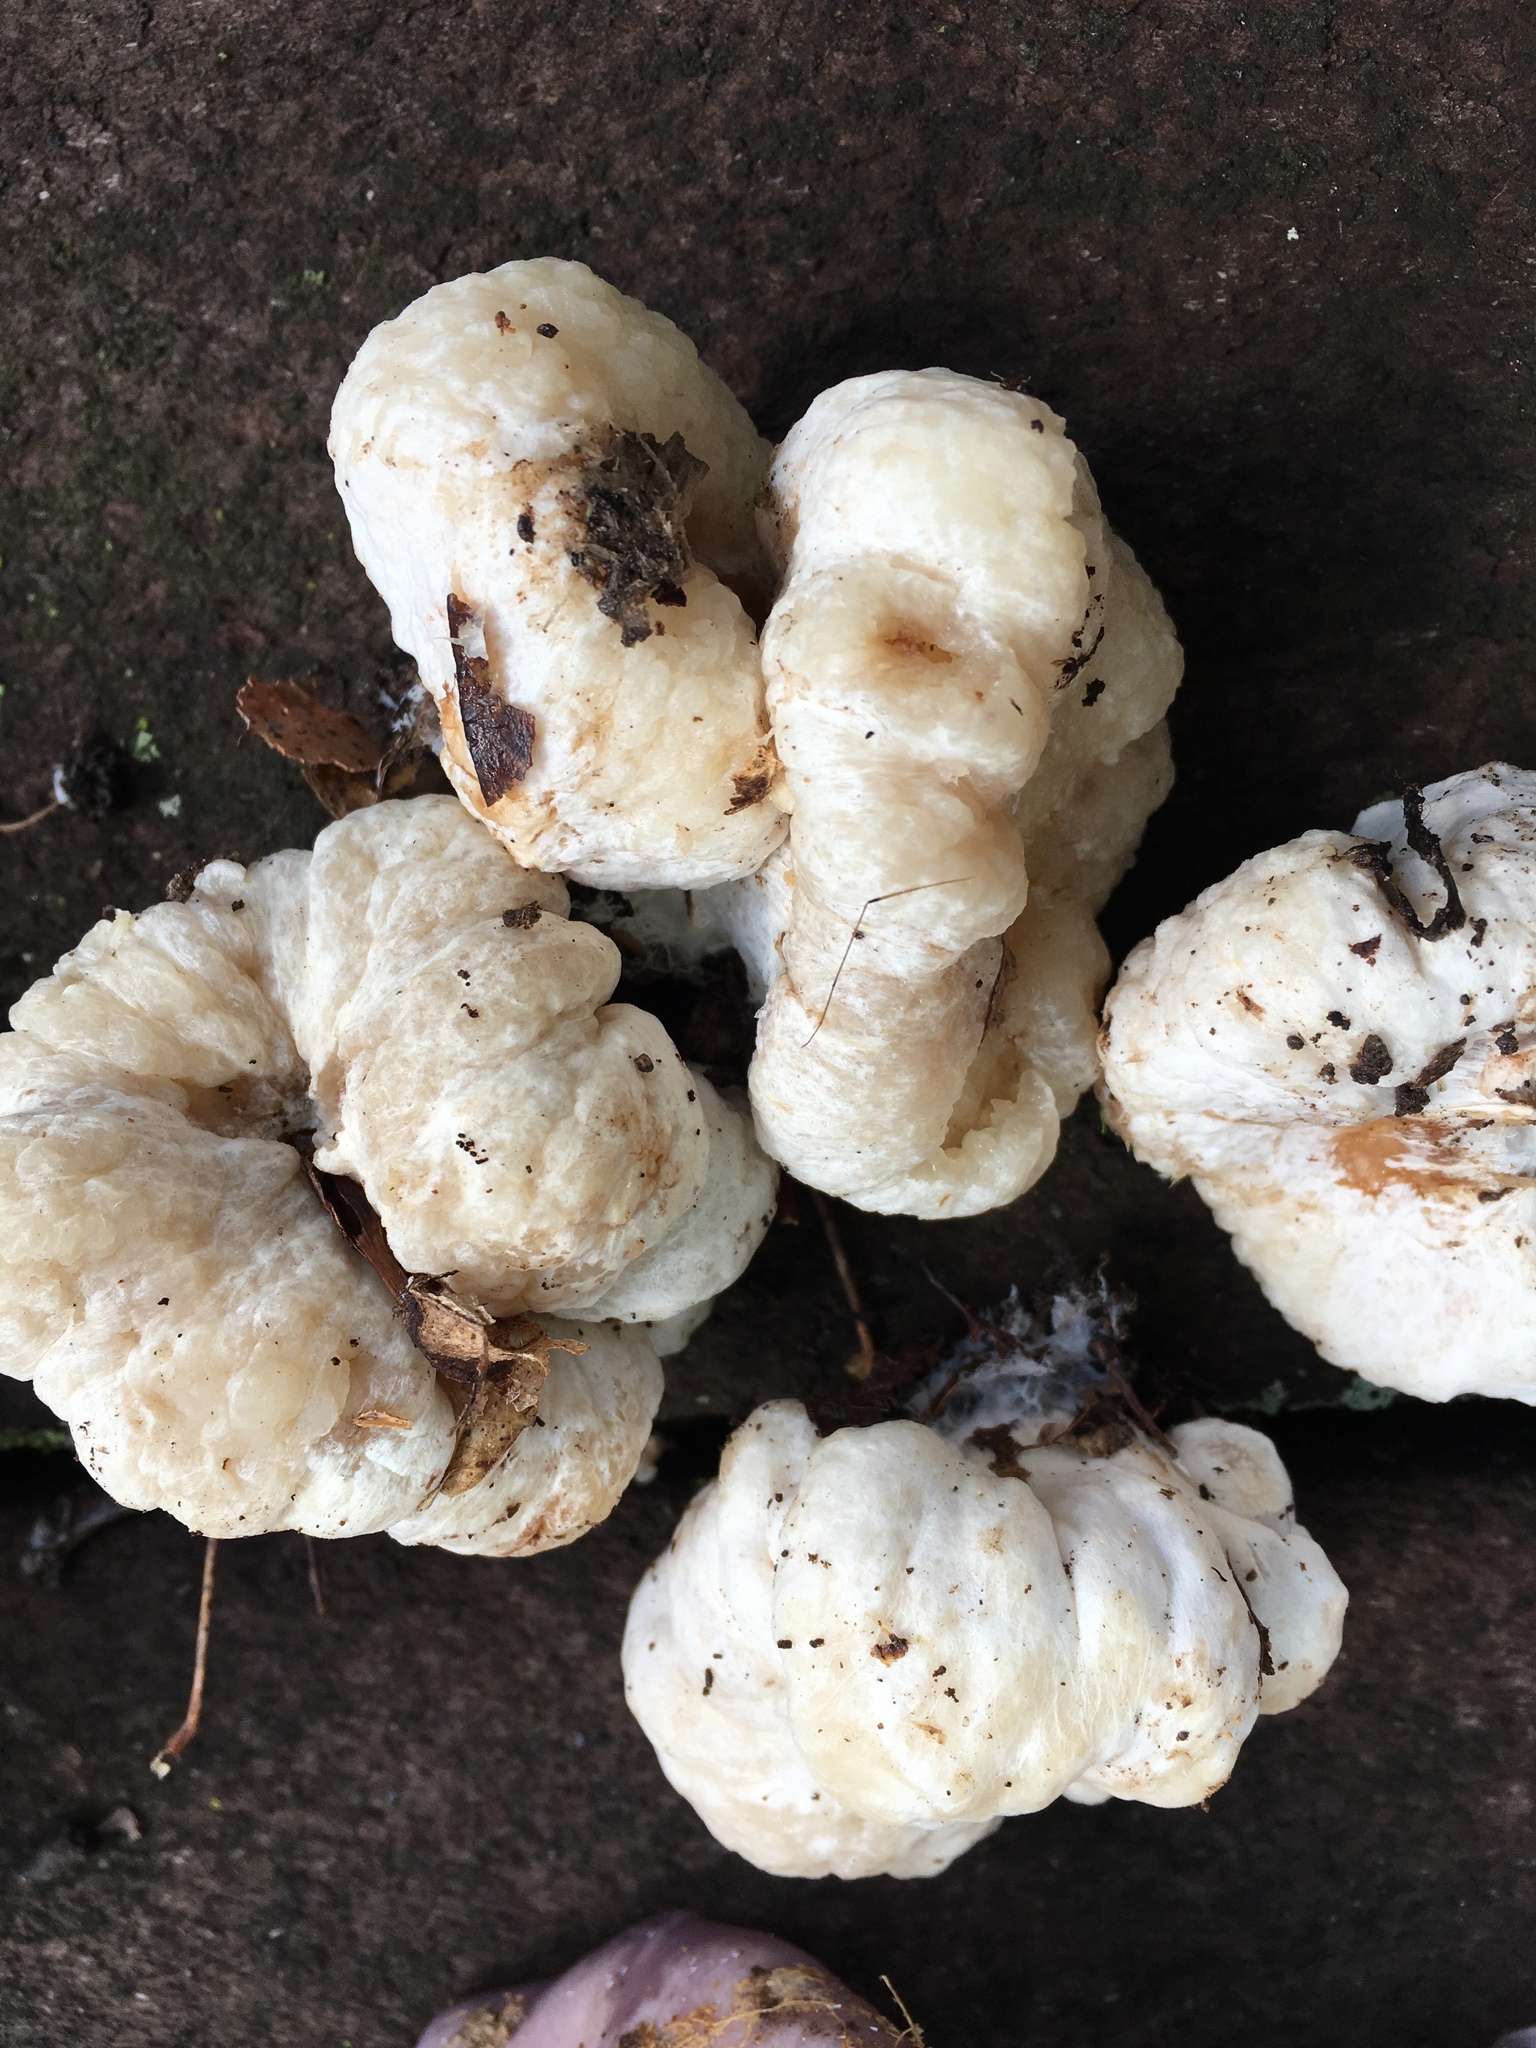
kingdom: Fungi
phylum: Basidiomycota
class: Agaricomycetes
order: Agaricales
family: Entolomataceae
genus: Entoloma
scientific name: Entoloma abortivum
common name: Aborted entoloma
